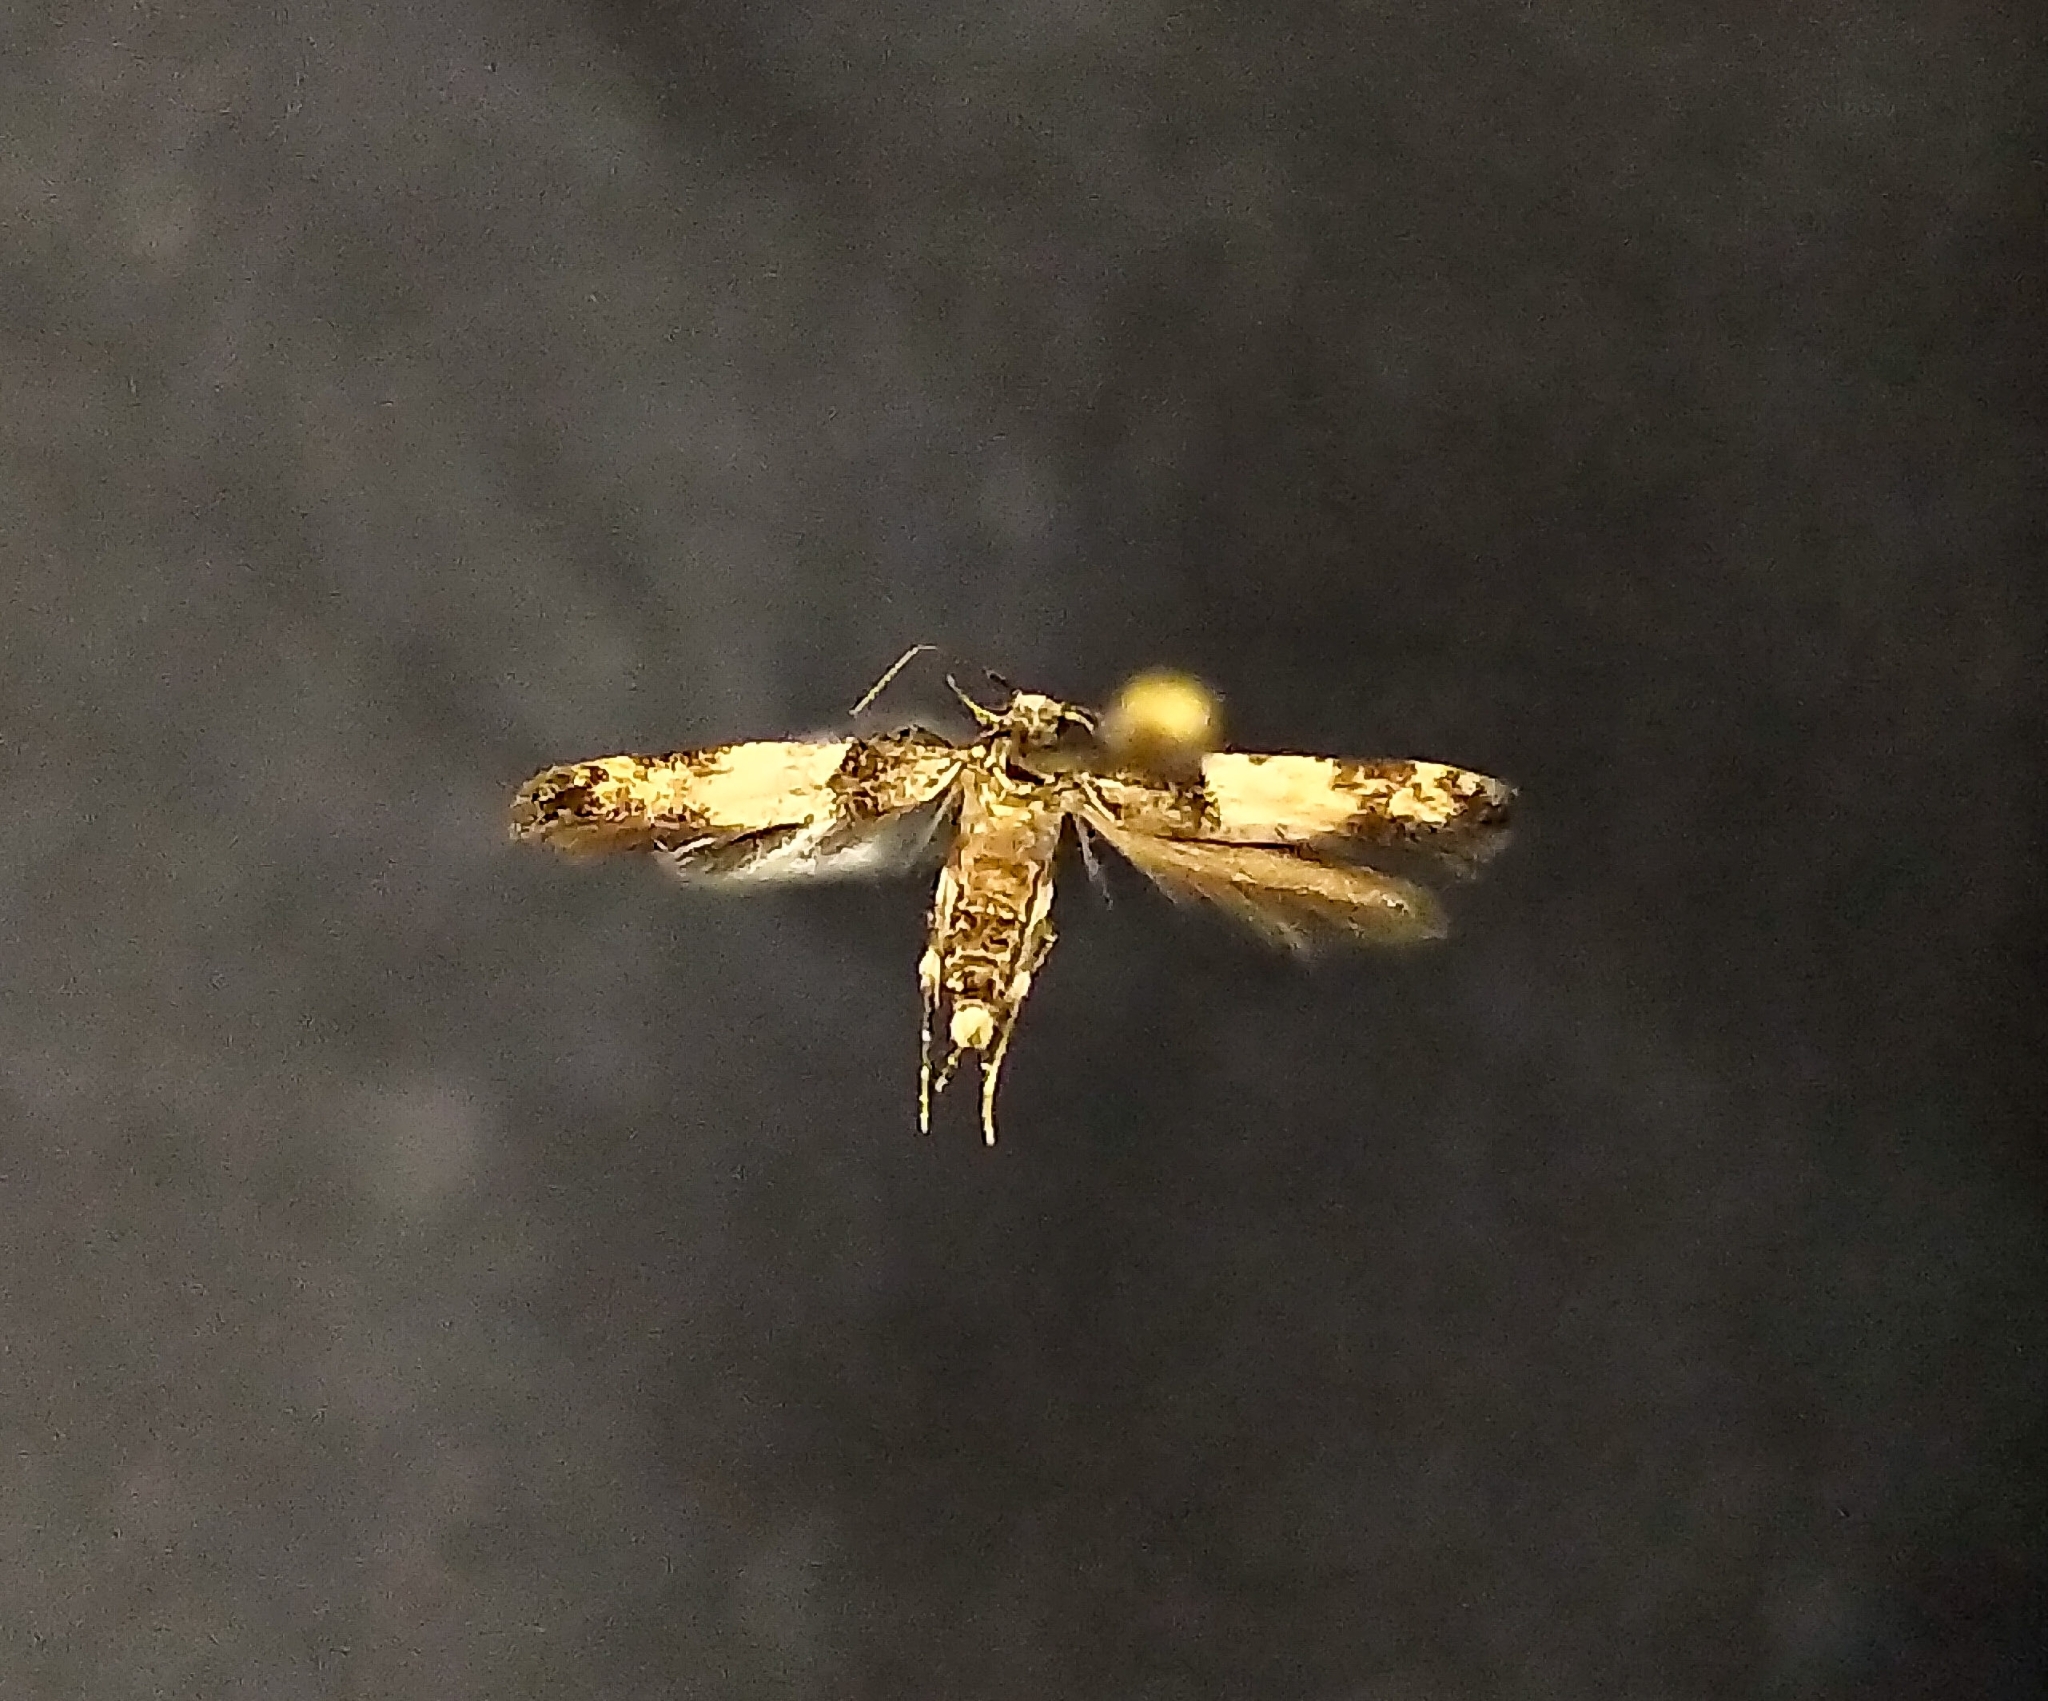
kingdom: Animalia
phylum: Arthropoda
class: Insecta
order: Lepidoptera
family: Cosmopterigidae
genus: Walshia
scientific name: Walshia miscecolorella
